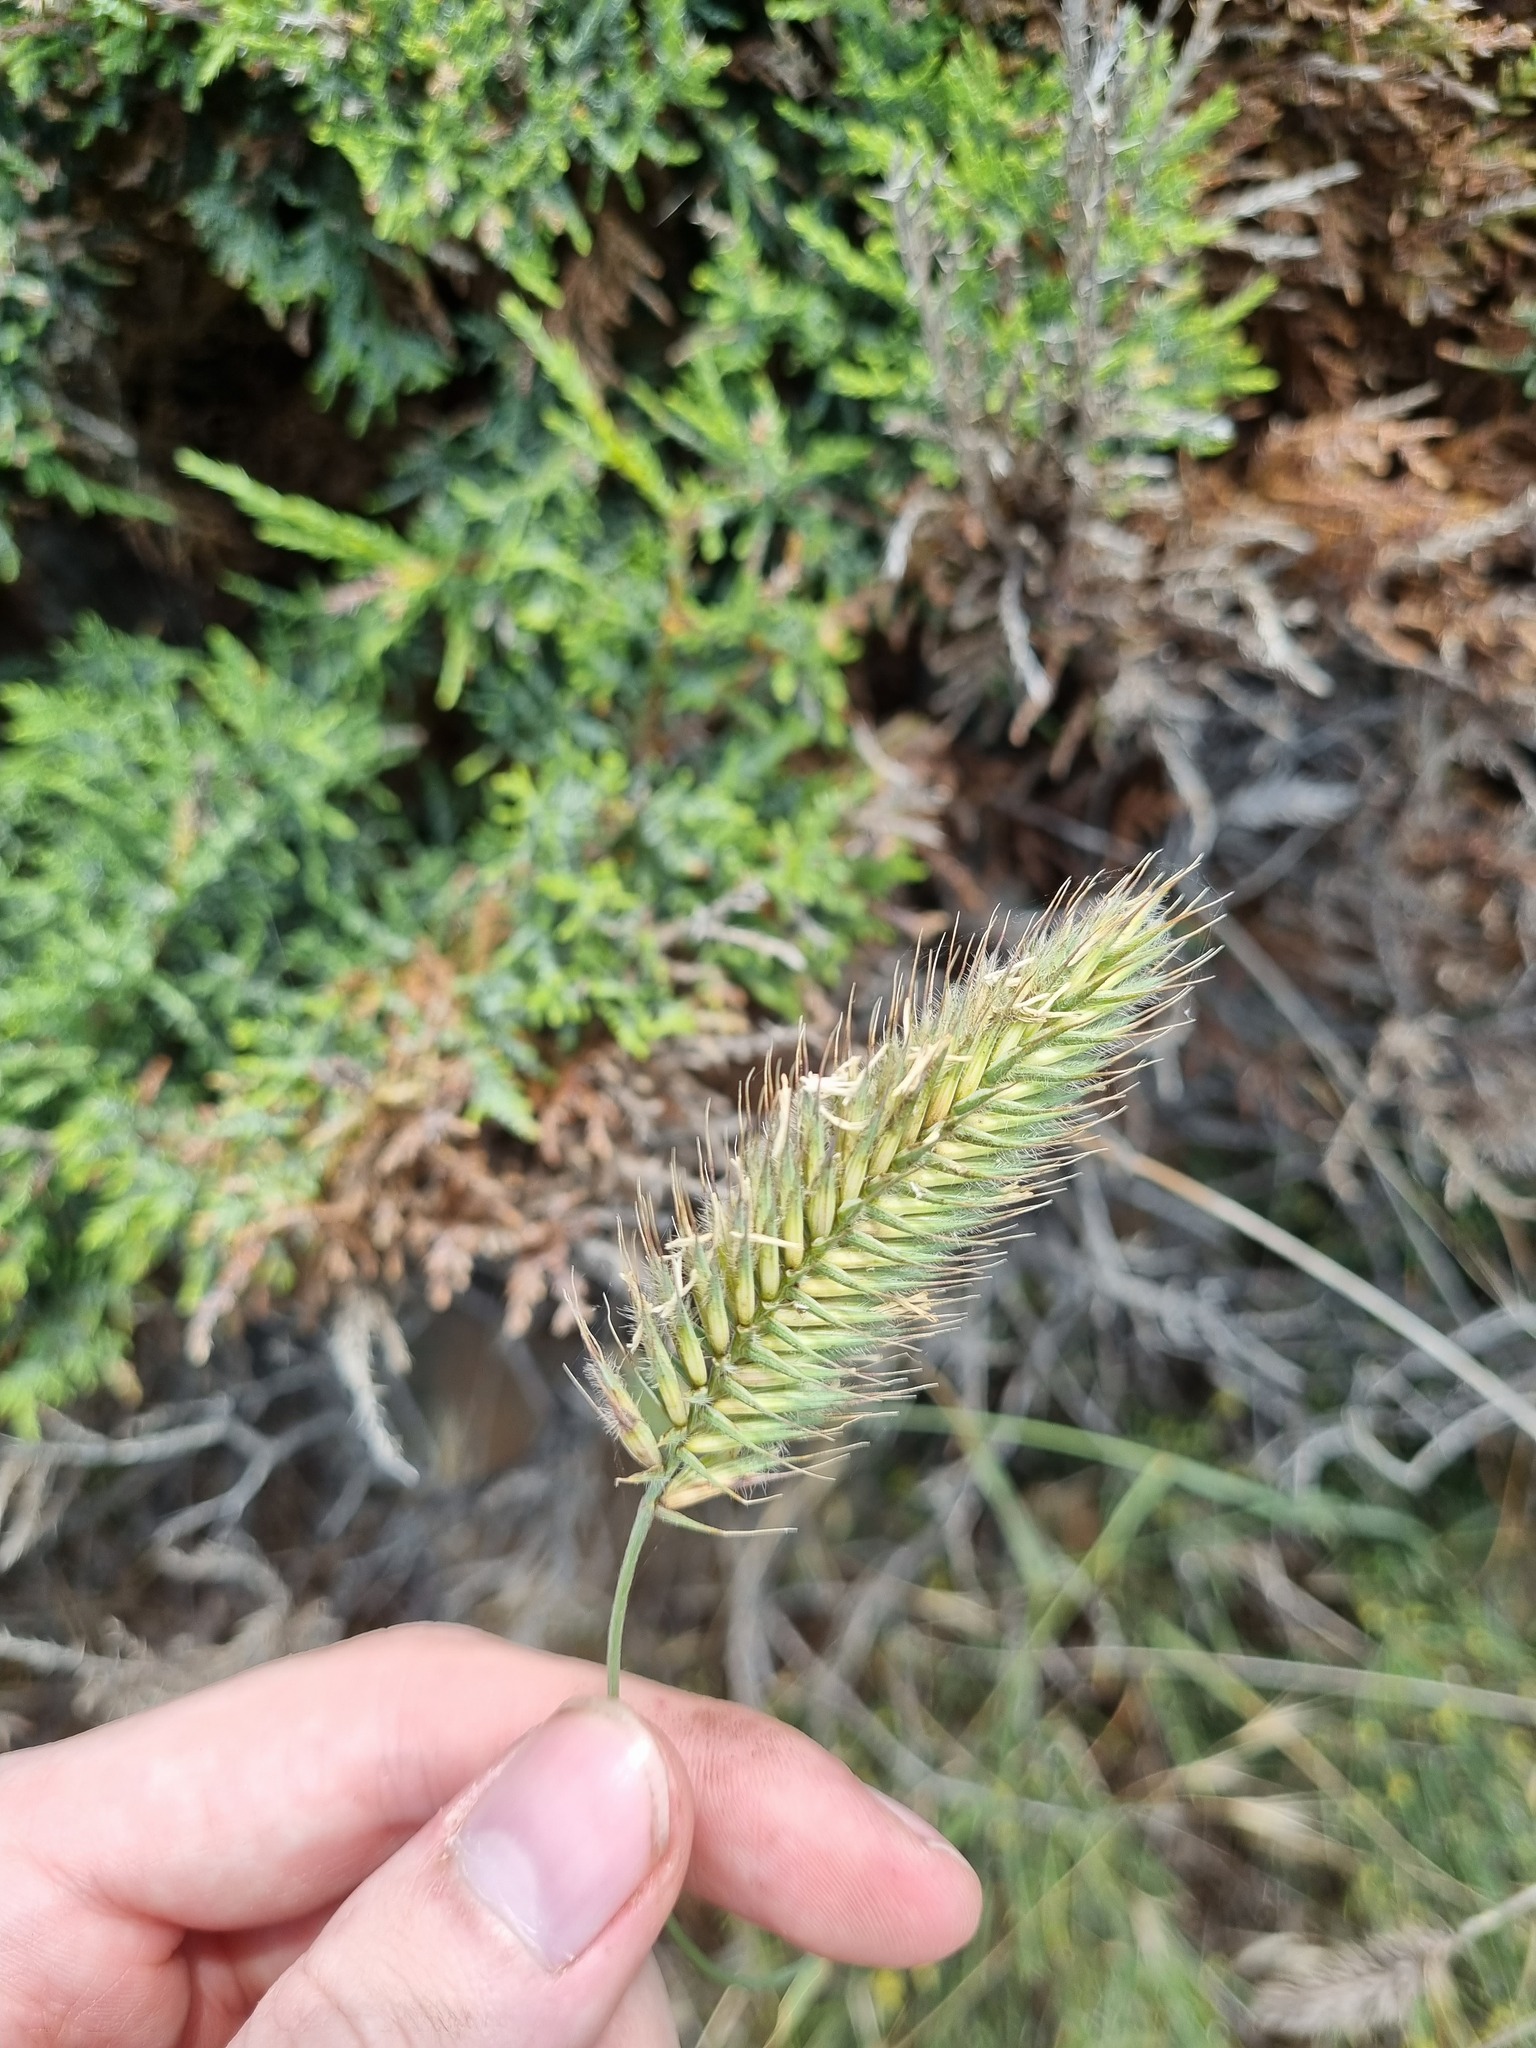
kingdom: Plantae
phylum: Tracheophyta
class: Liliopsida
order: Poales
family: Poaceae
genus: Agropyron
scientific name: Agropyron cristatum
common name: Crested wheatgrass
